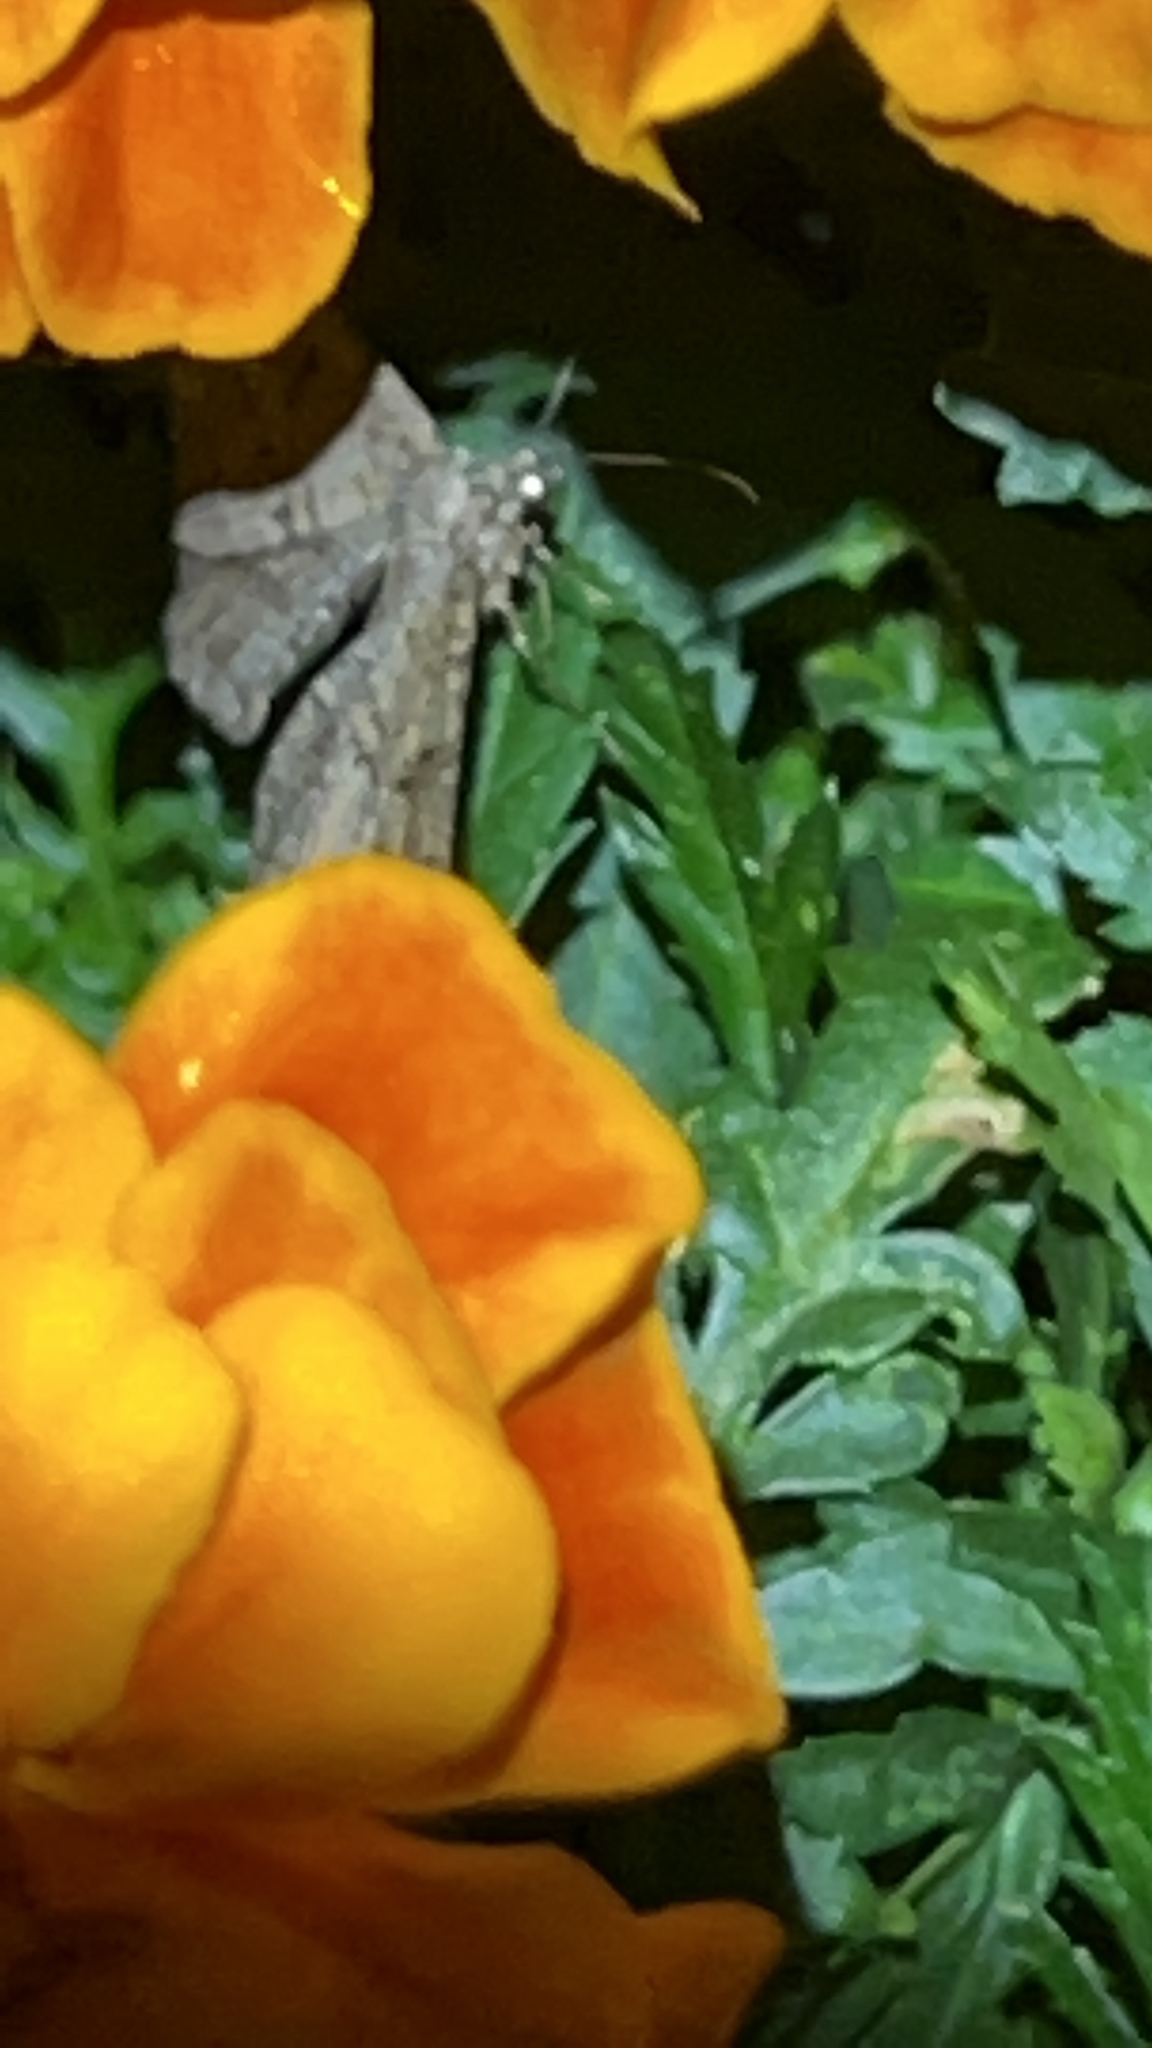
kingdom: Animalia
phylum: Arthropoda
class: Insecta
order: Lepidoptera
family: Geometridae
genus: Peribatodes
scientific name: Peribatodes rhomboidaria
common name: Willow beauty
